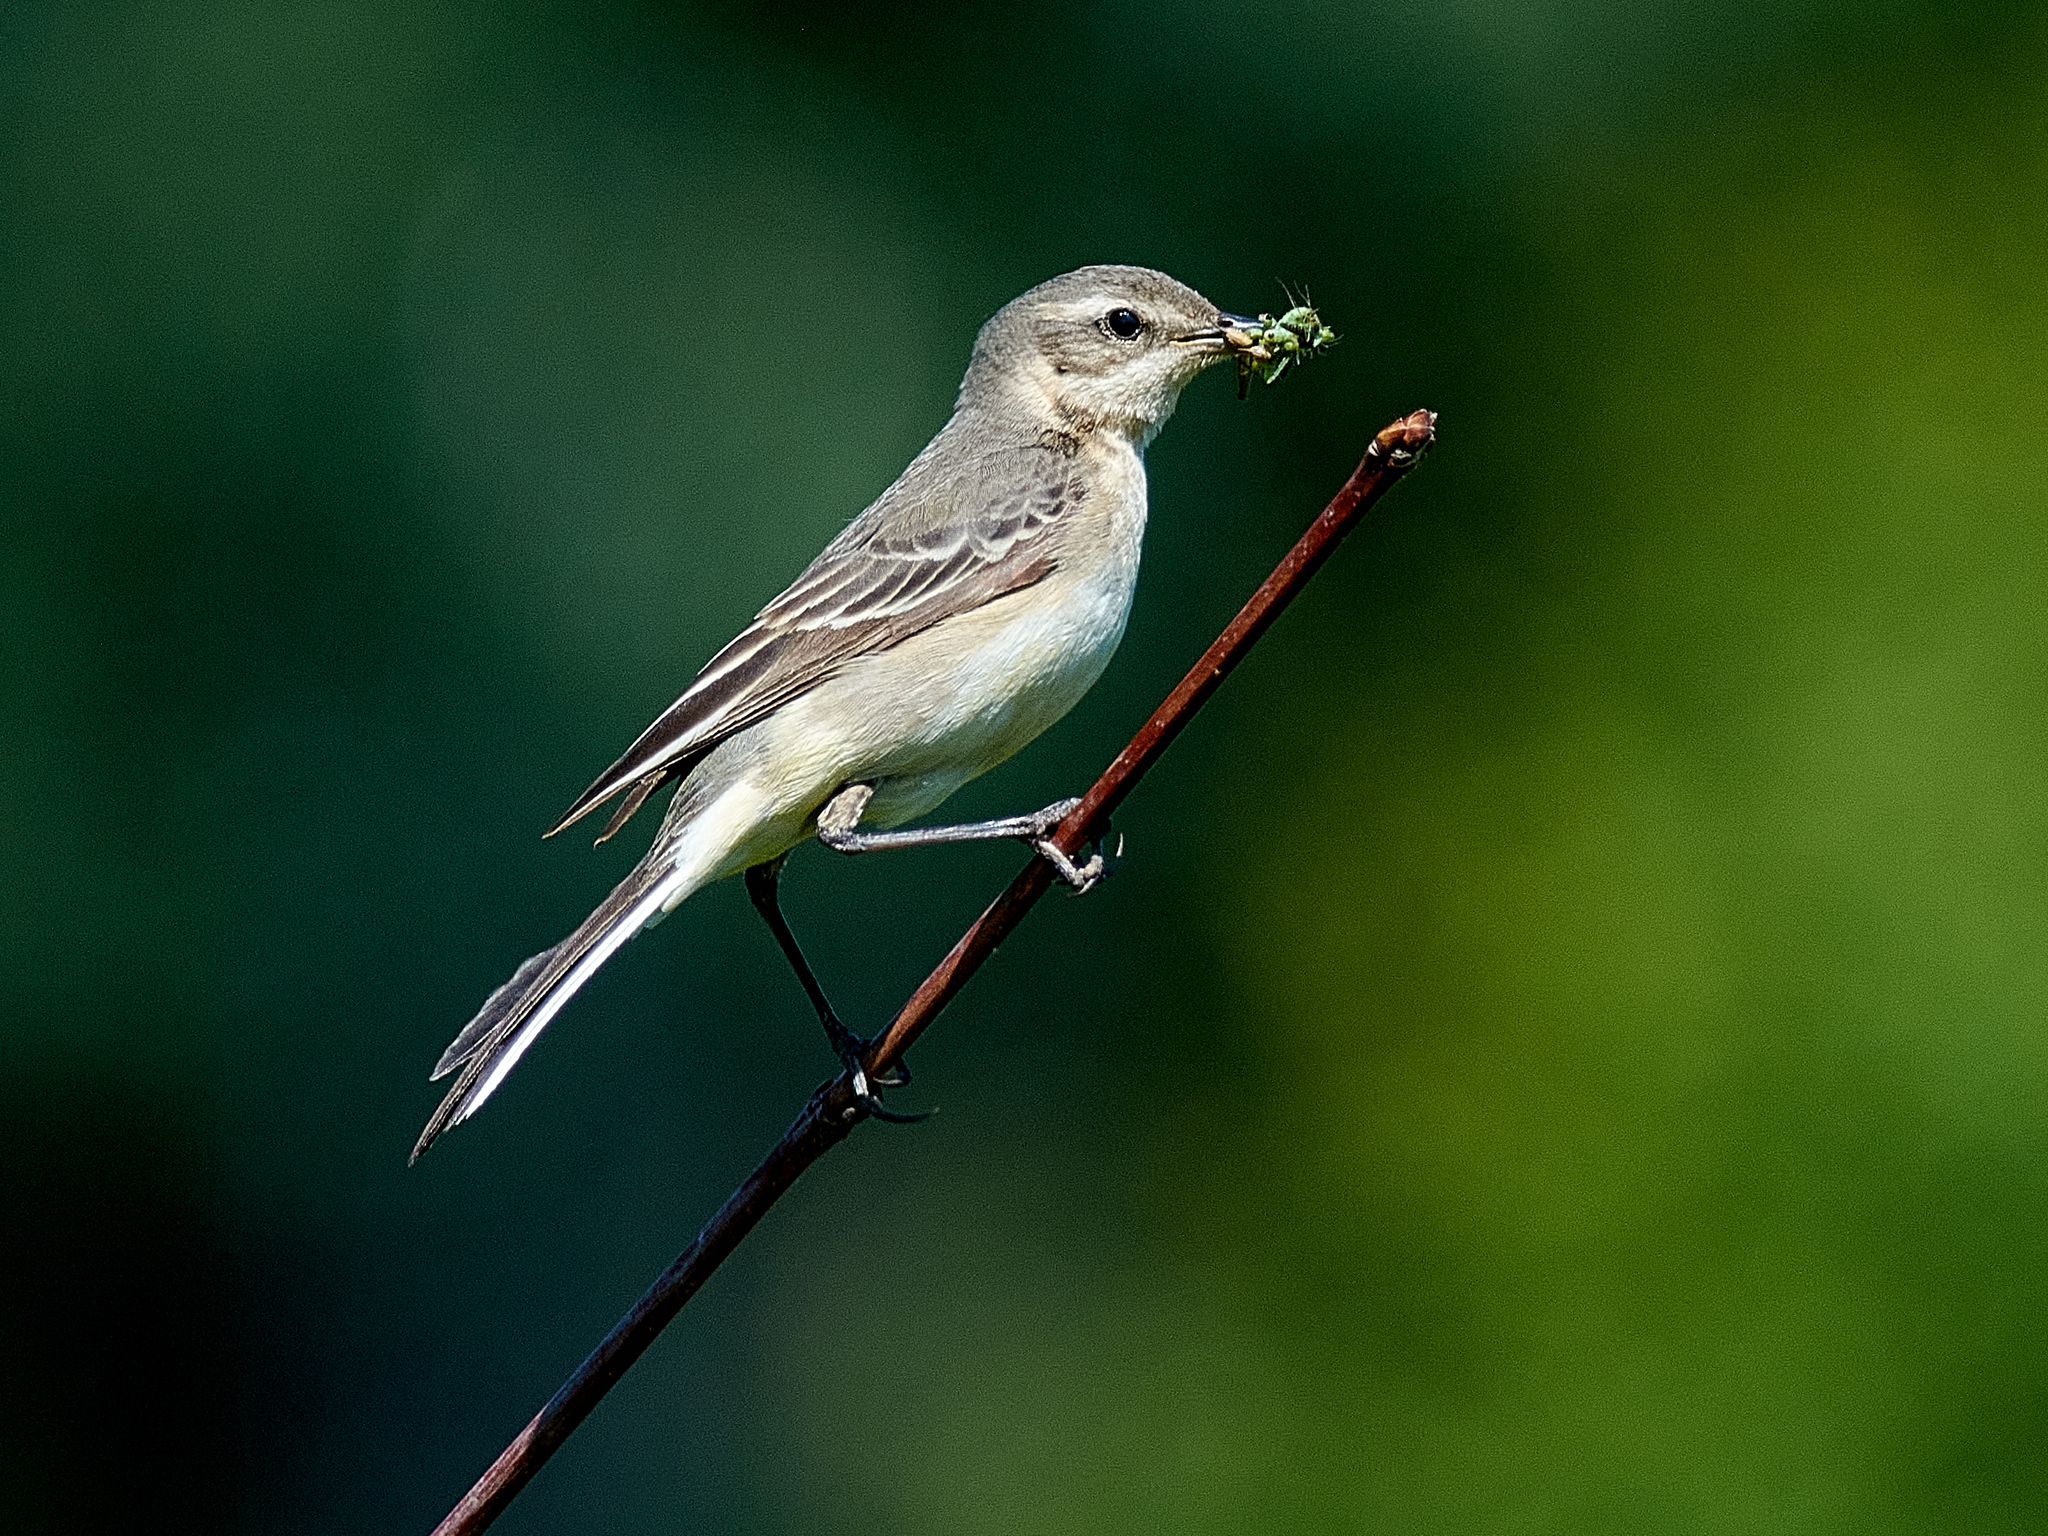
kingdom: Animalia
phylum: Chordata
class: Aves
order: Passeriformes
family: Motacillidae
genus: Motacilla
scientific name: Motacilla flava
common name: Western yellow wagtail
